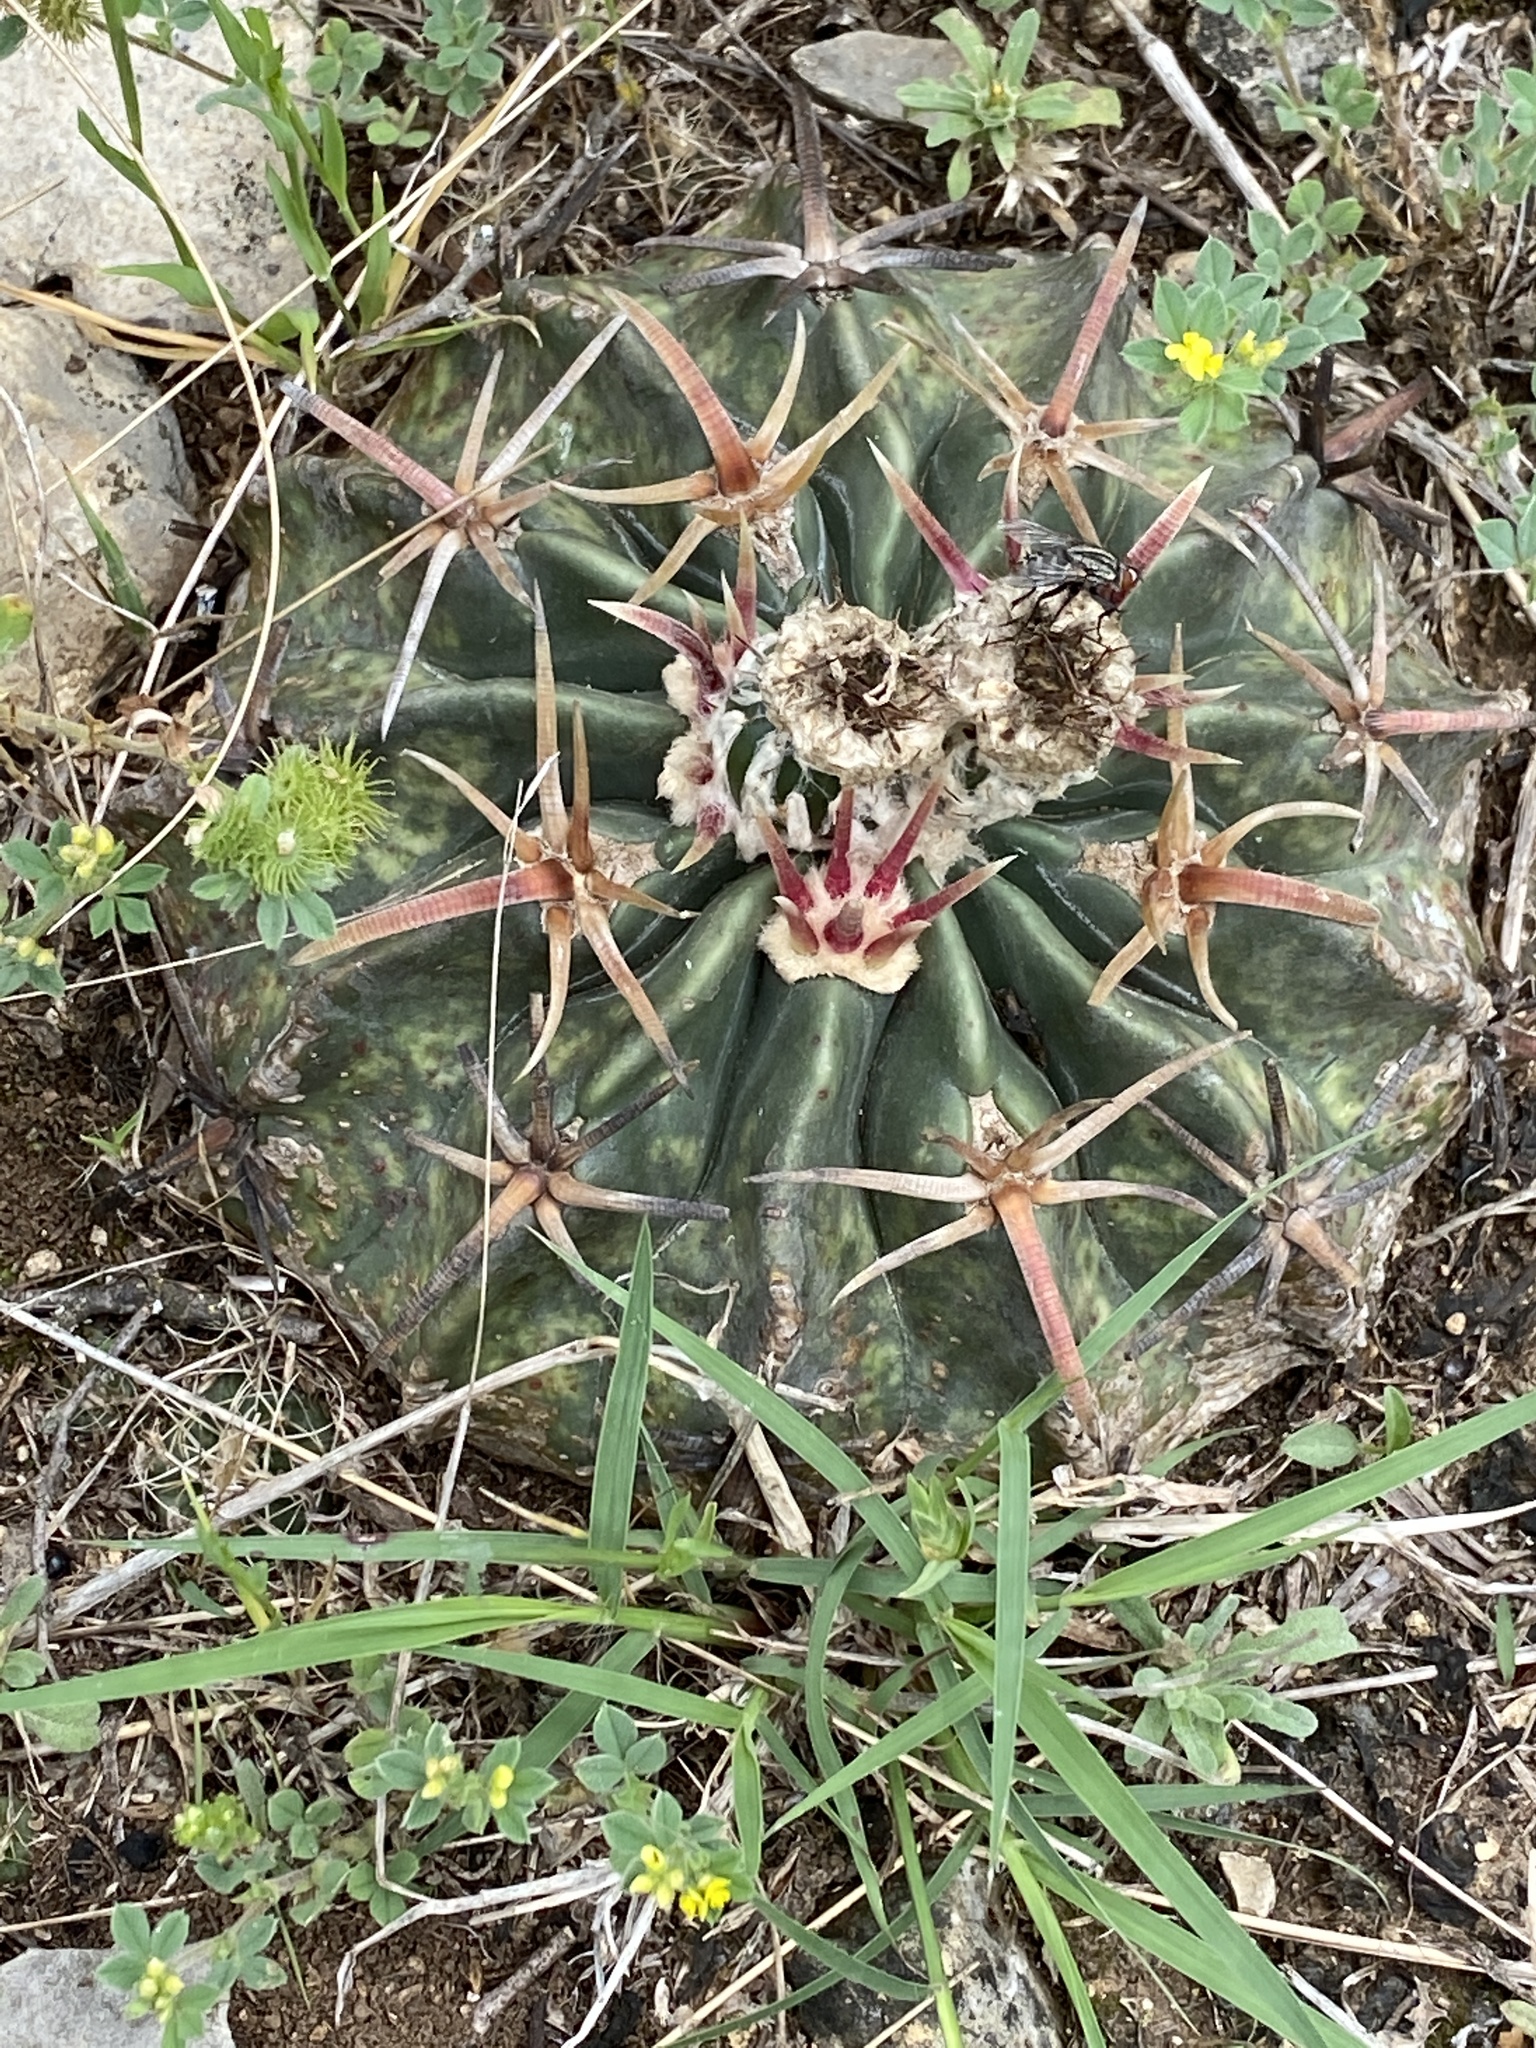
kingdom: Plantae
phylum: Tracheophyta
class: Magnoliopsida
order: Caryophyllales
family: Cactaceae
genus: Echinocactus
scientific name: Echinocactus texensis
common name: Devil's pincushion
